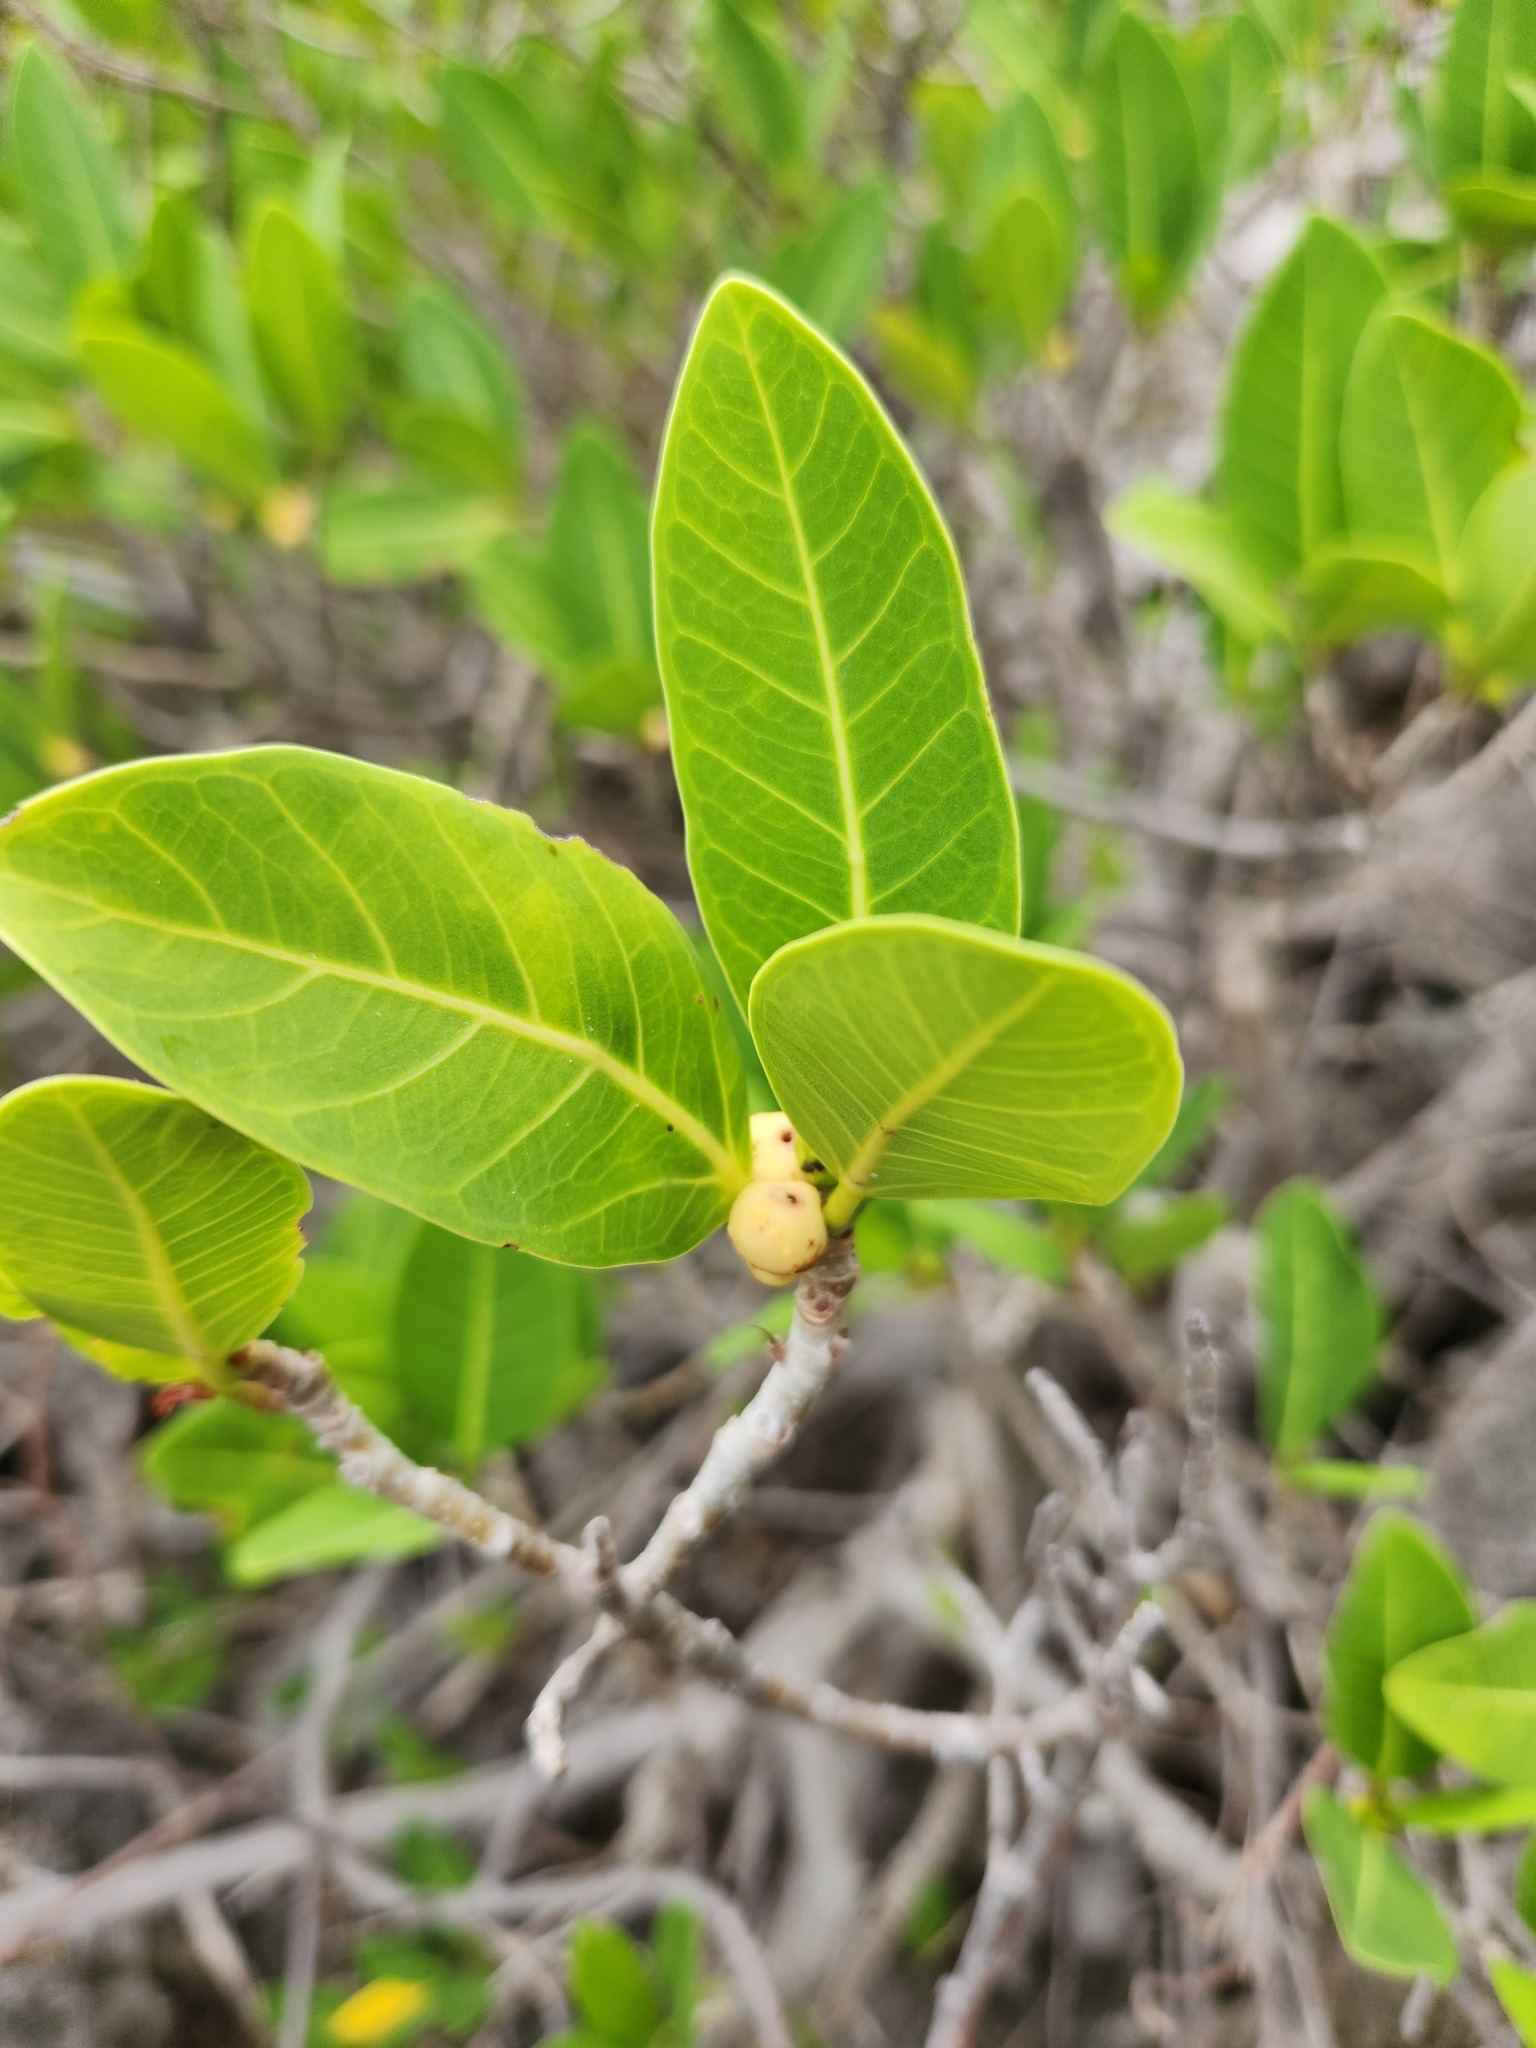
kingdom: Plantae
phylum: Tracheophyta
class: Magnoliopsida
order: Rosales
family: Moraceae
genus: Ficus
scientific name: Ficus aurea
